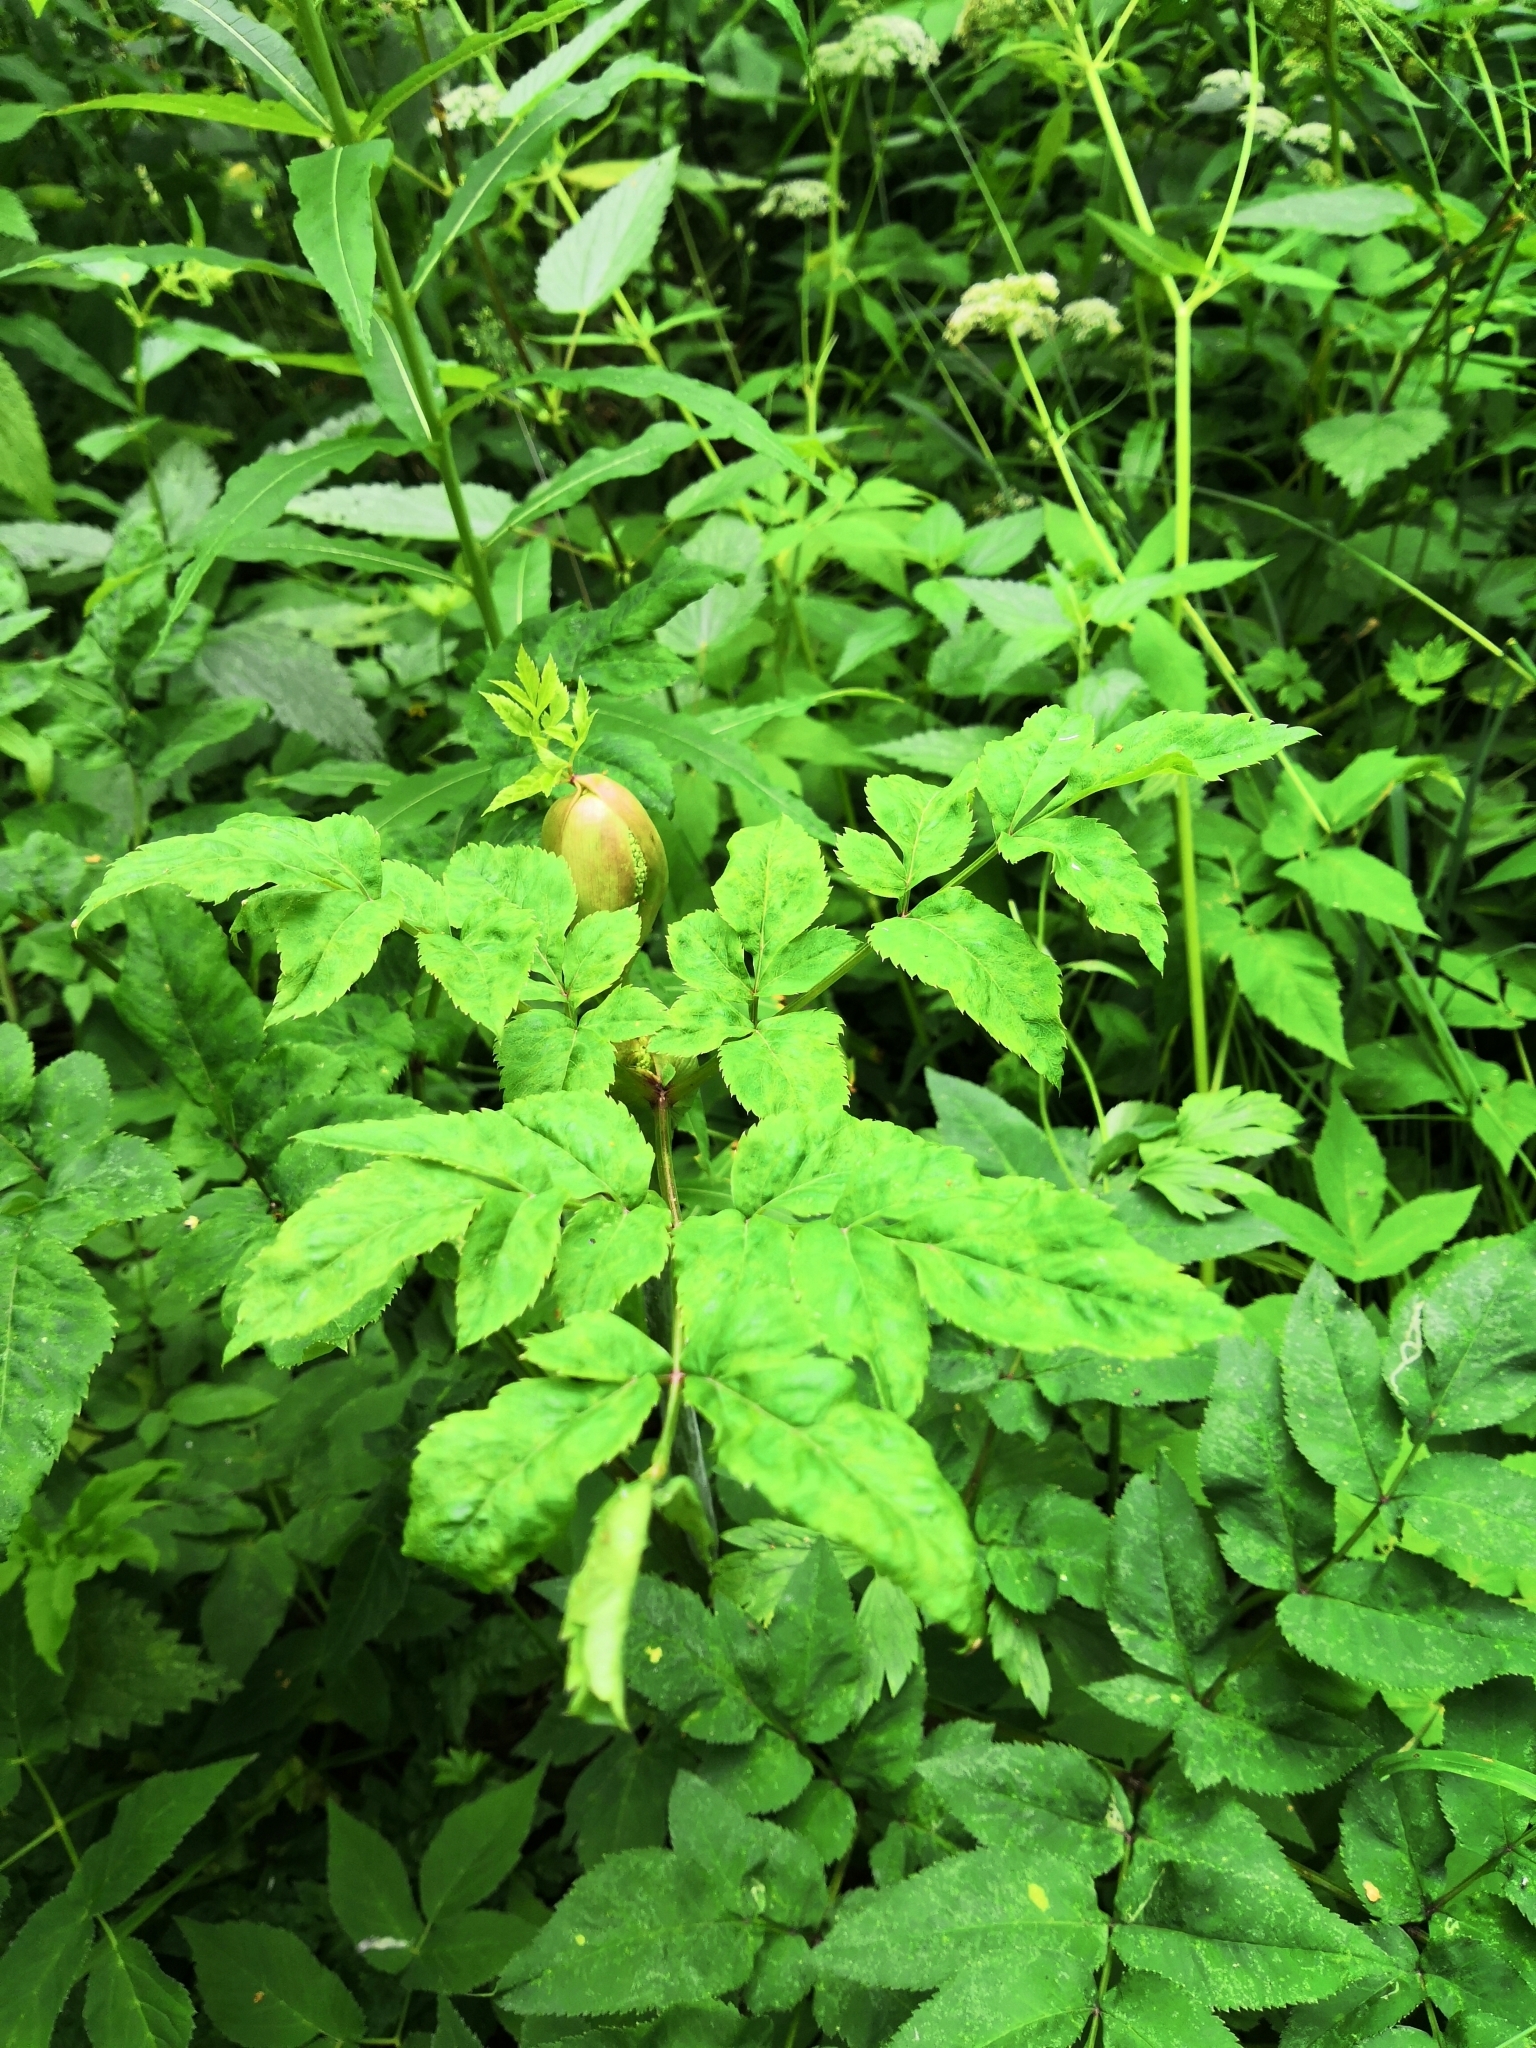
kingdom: Plantae
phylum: Tracheophyta
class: Magnoliopsida
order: Apiales
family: Apiaceae
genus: Angelica
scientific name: Angelica sylvestris
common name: Wild angelica
